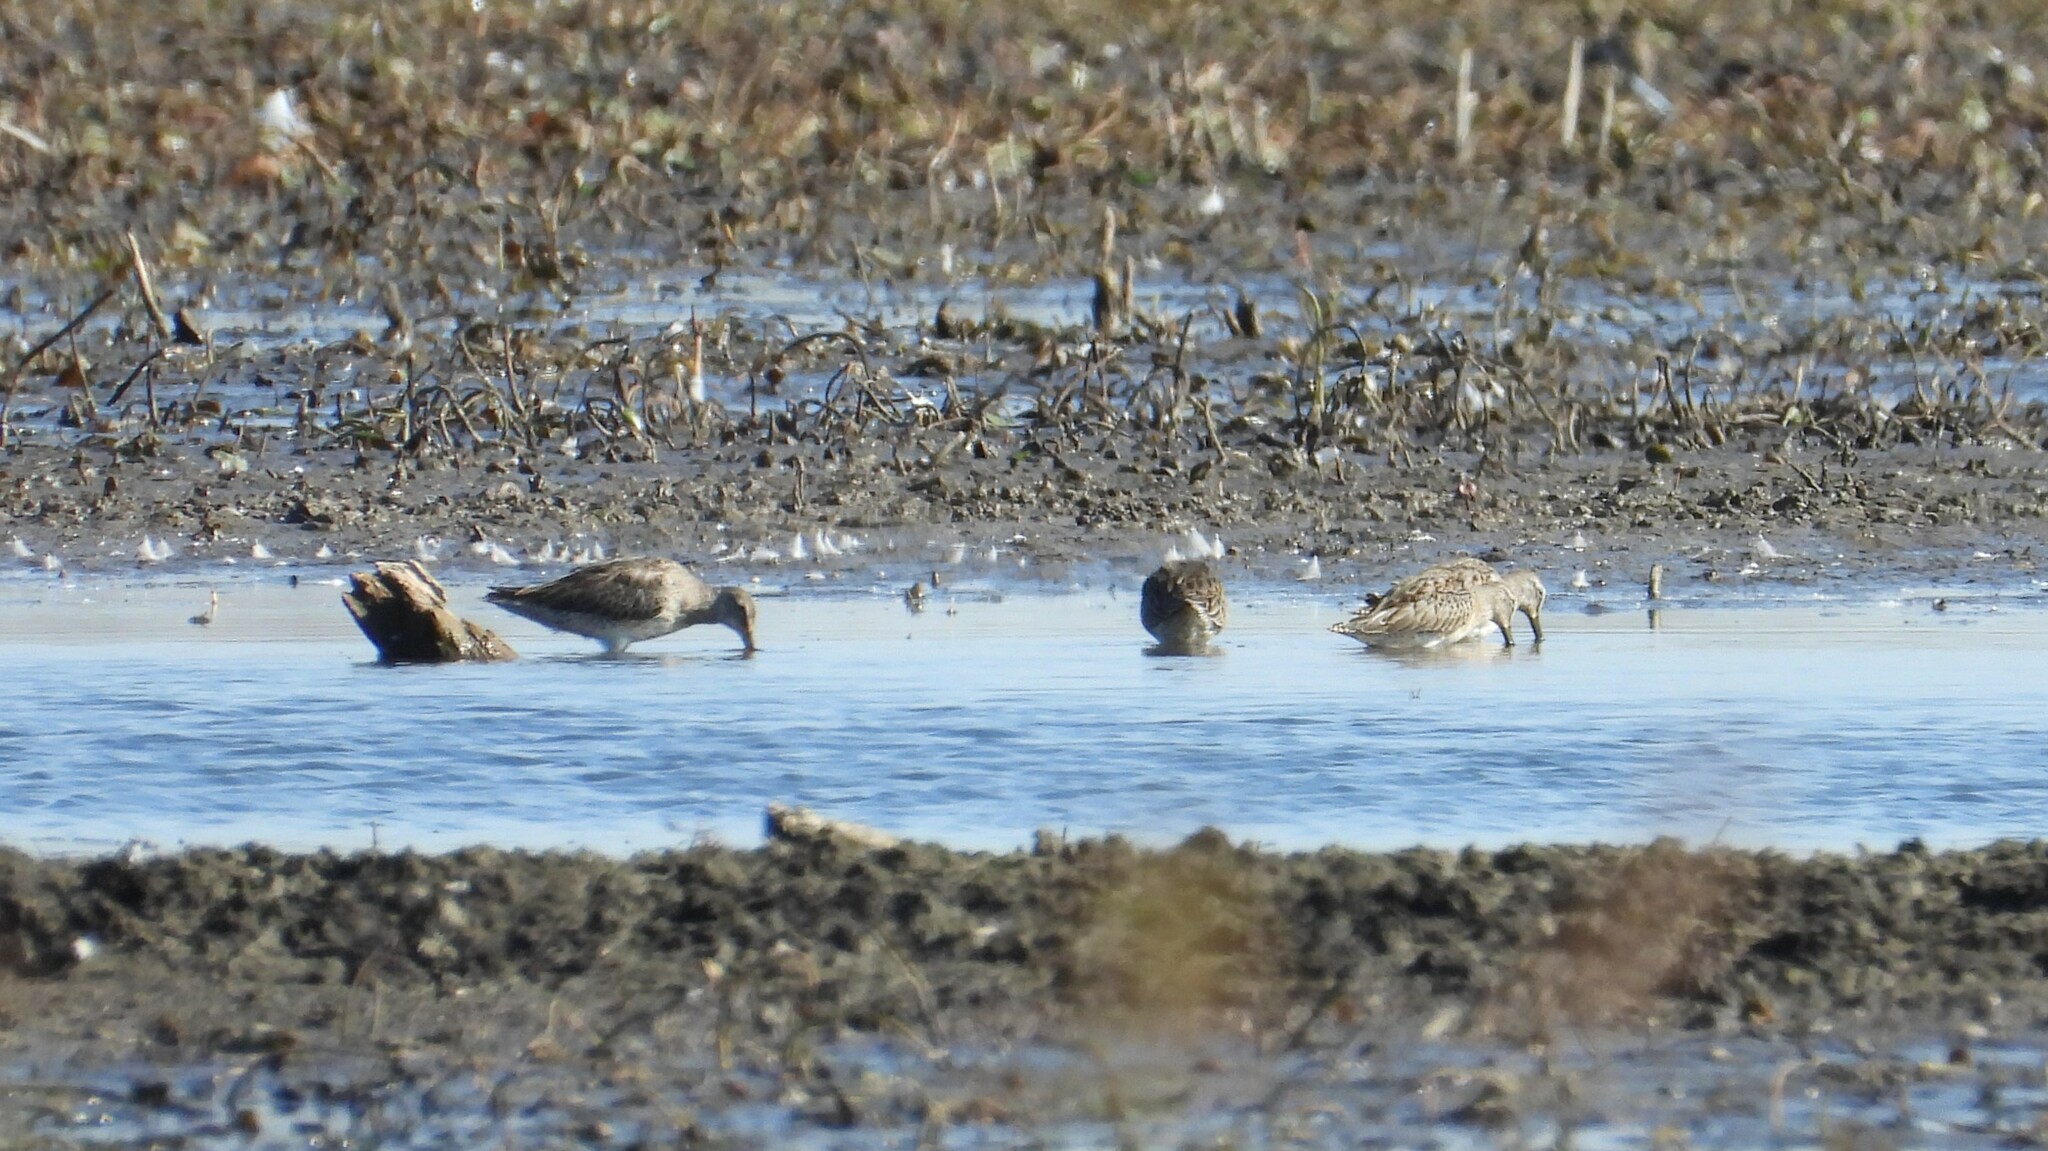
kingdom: Animalia
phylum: Chordata
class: Aves
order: Charadriiformes
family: Scolopacidae
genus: Limnodromus
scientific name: Limnodromus scolopaceus
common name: Long-billed dowitcher
